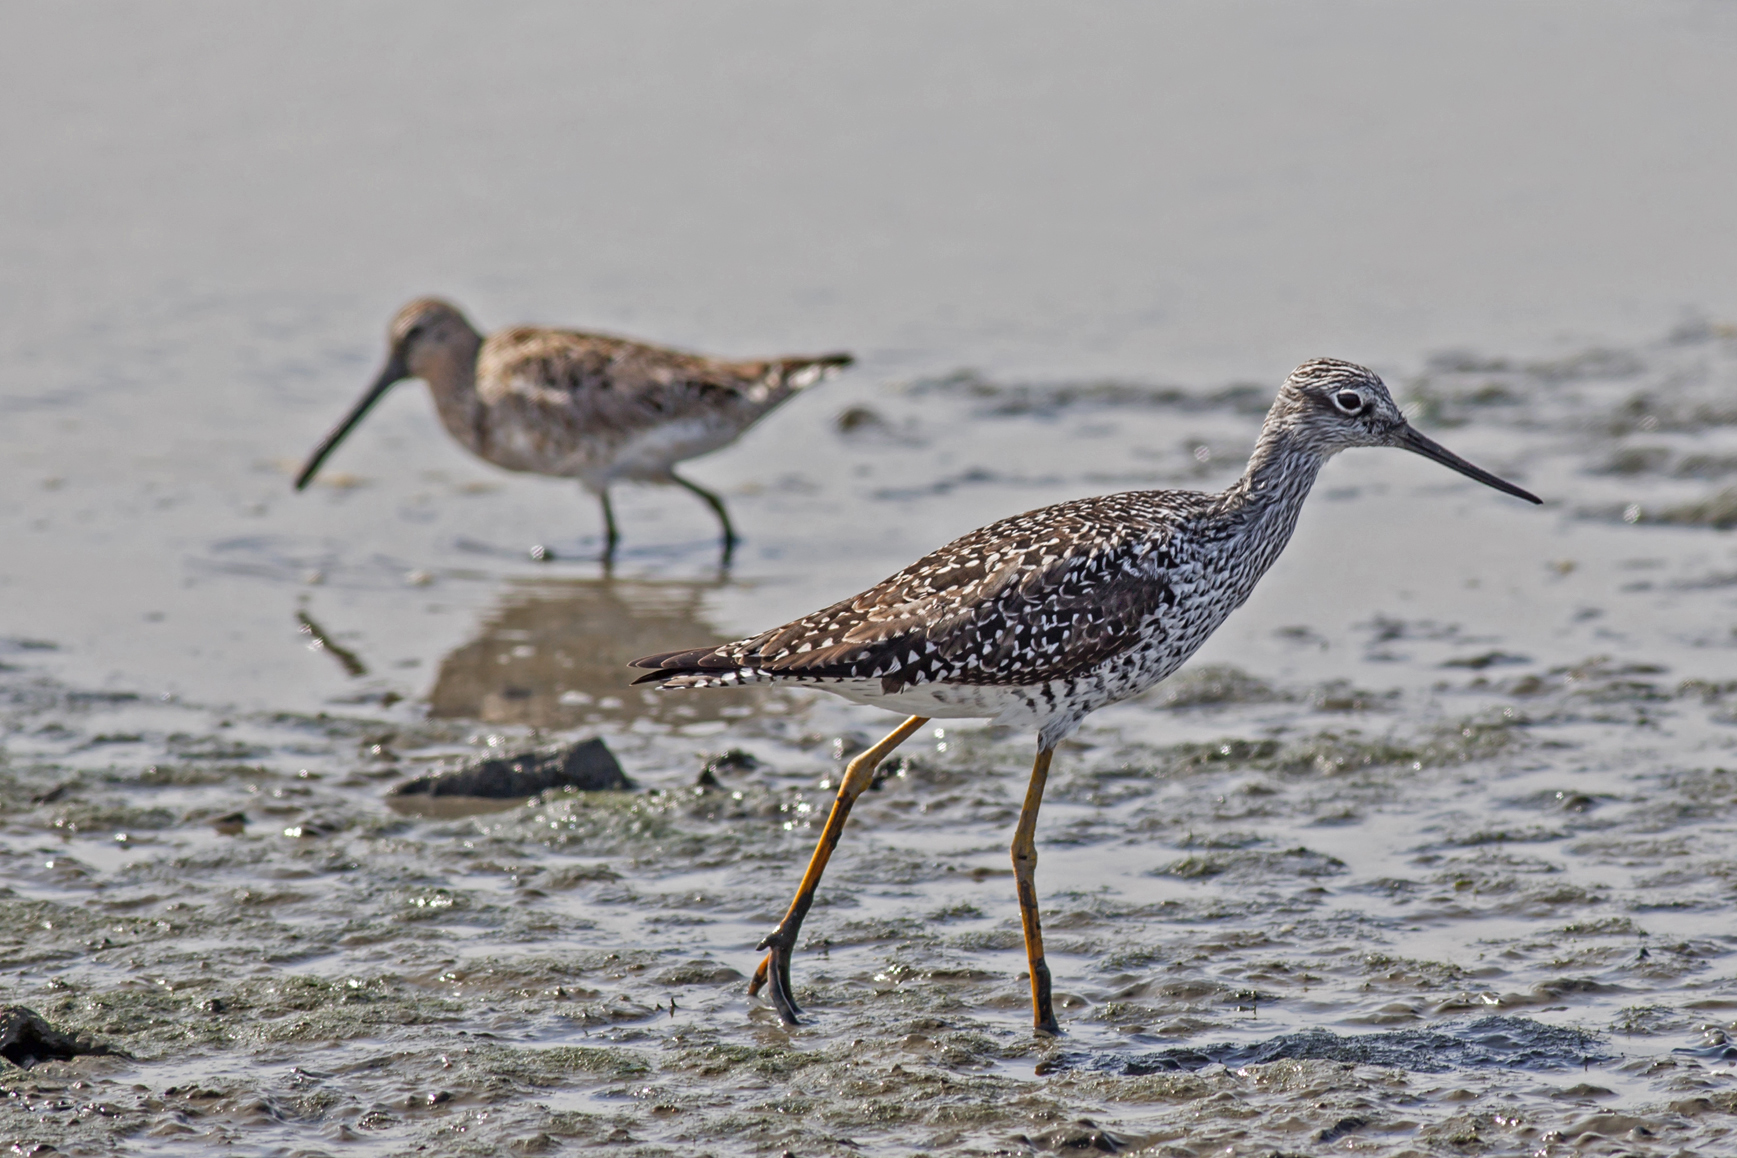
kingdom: Animalia
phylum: Chordata
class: Aves
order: Charadriiformes
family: Scolopacidae
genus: Tringa
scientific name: Tringa melanoleuca
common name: Greater yellowlegs
